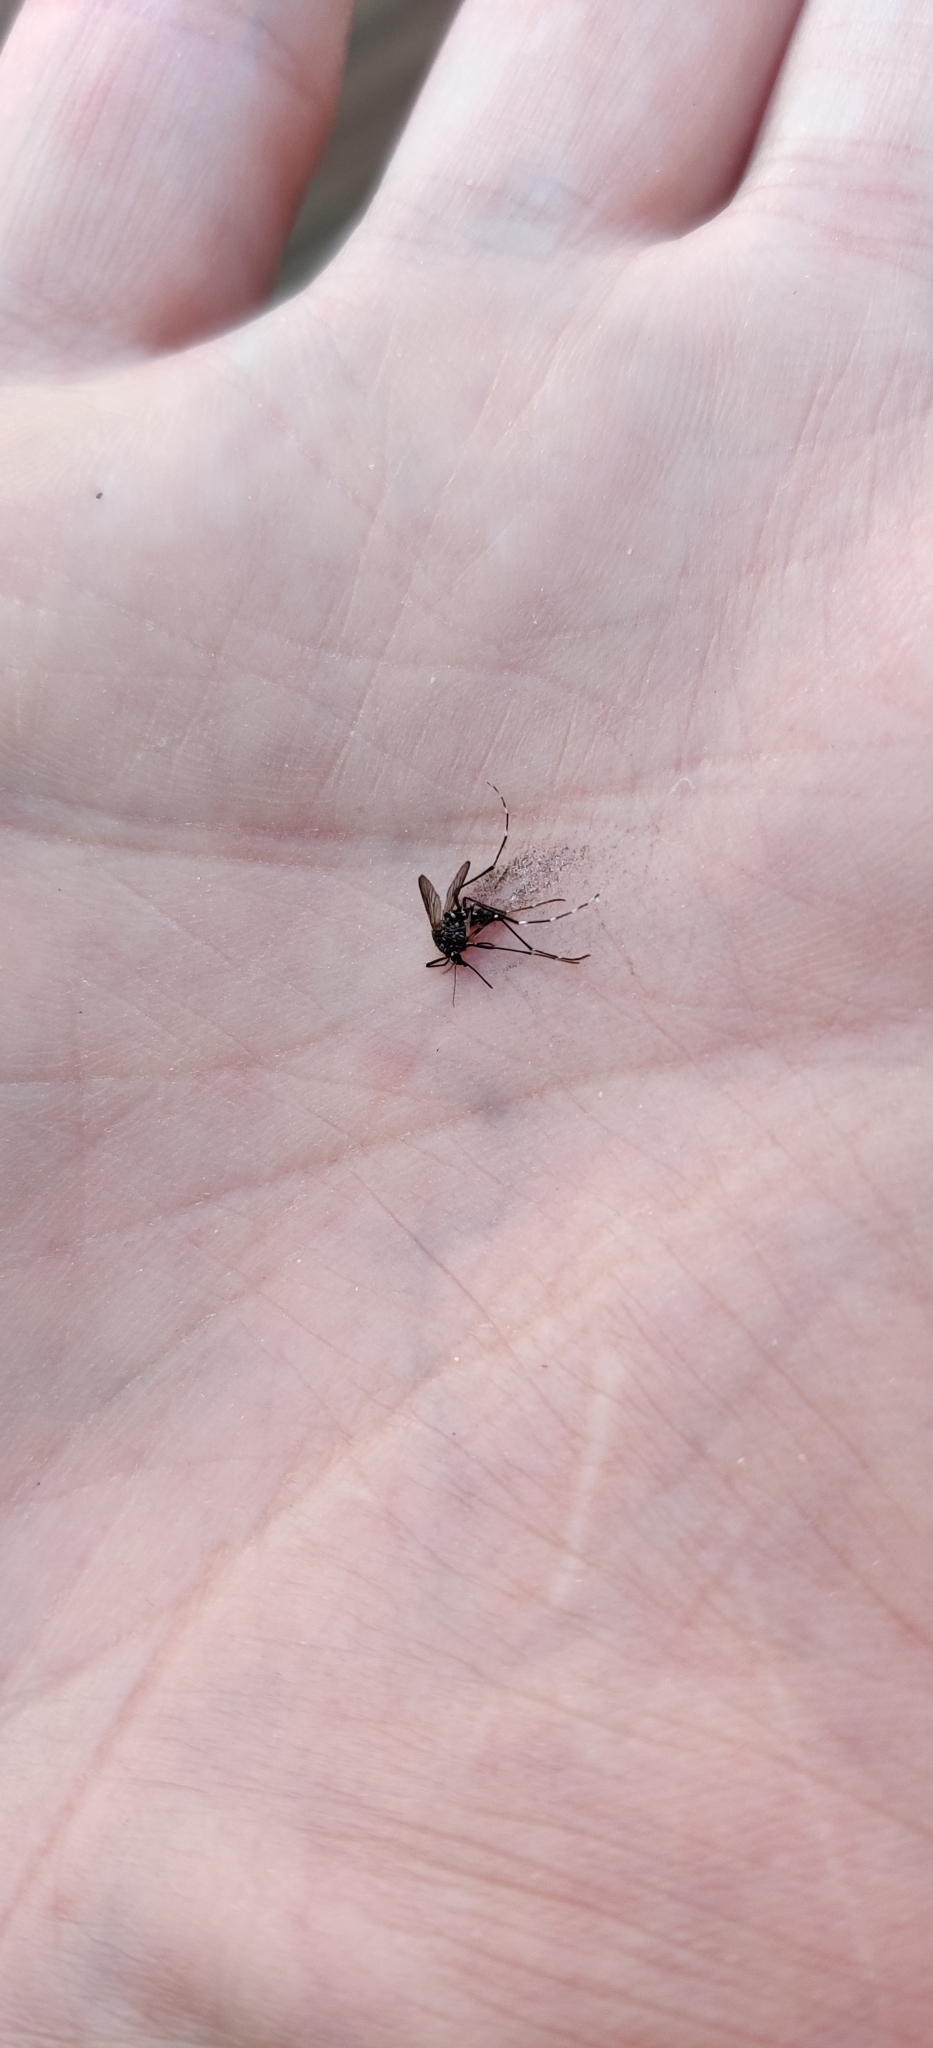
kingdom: Animalia
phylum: Arthropoda
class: Insecta
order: Diptera
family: Culicidae
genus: Aedes
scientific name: Aedes albopictus
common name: Tiger mosquito
